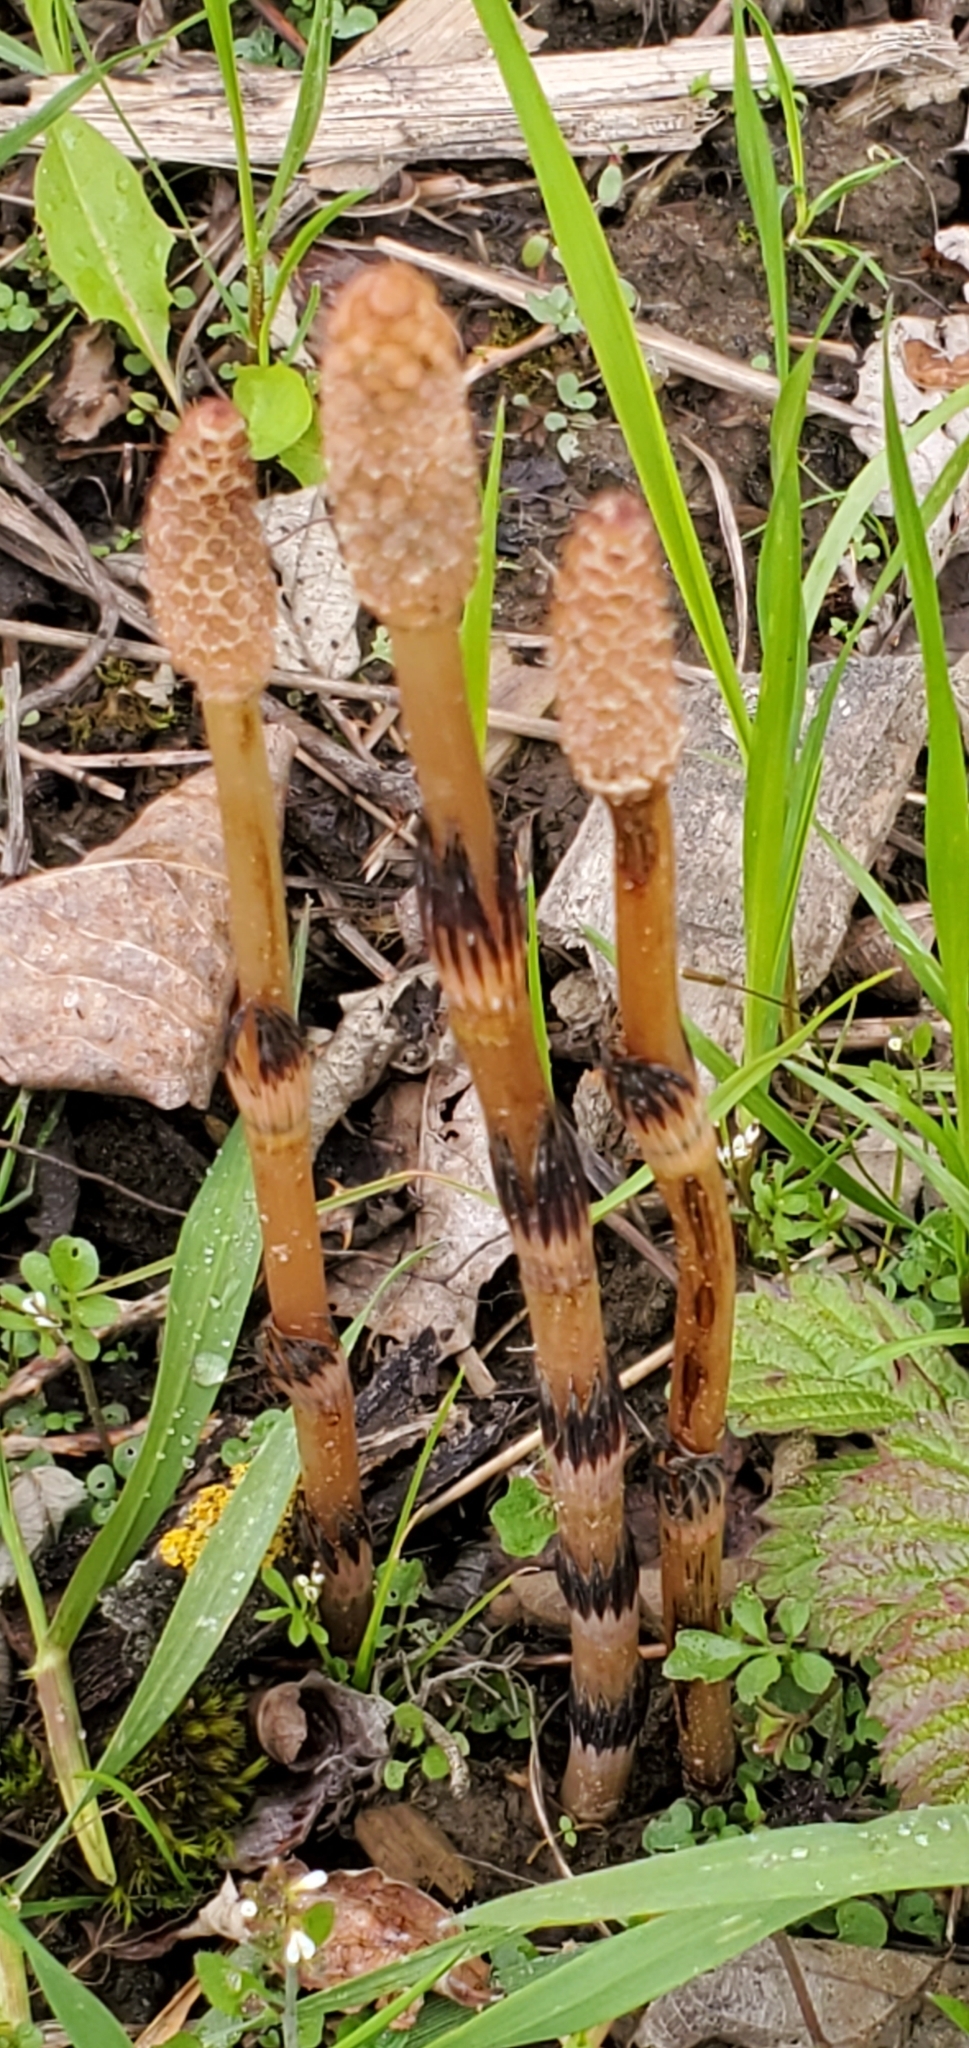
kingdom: Plantae
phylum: Tracheophyta
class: Polypodiopsida
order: Equisetales
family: Equisetaceae
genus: Equisetum
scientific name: Equisetum arvense
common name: Field horsetail
